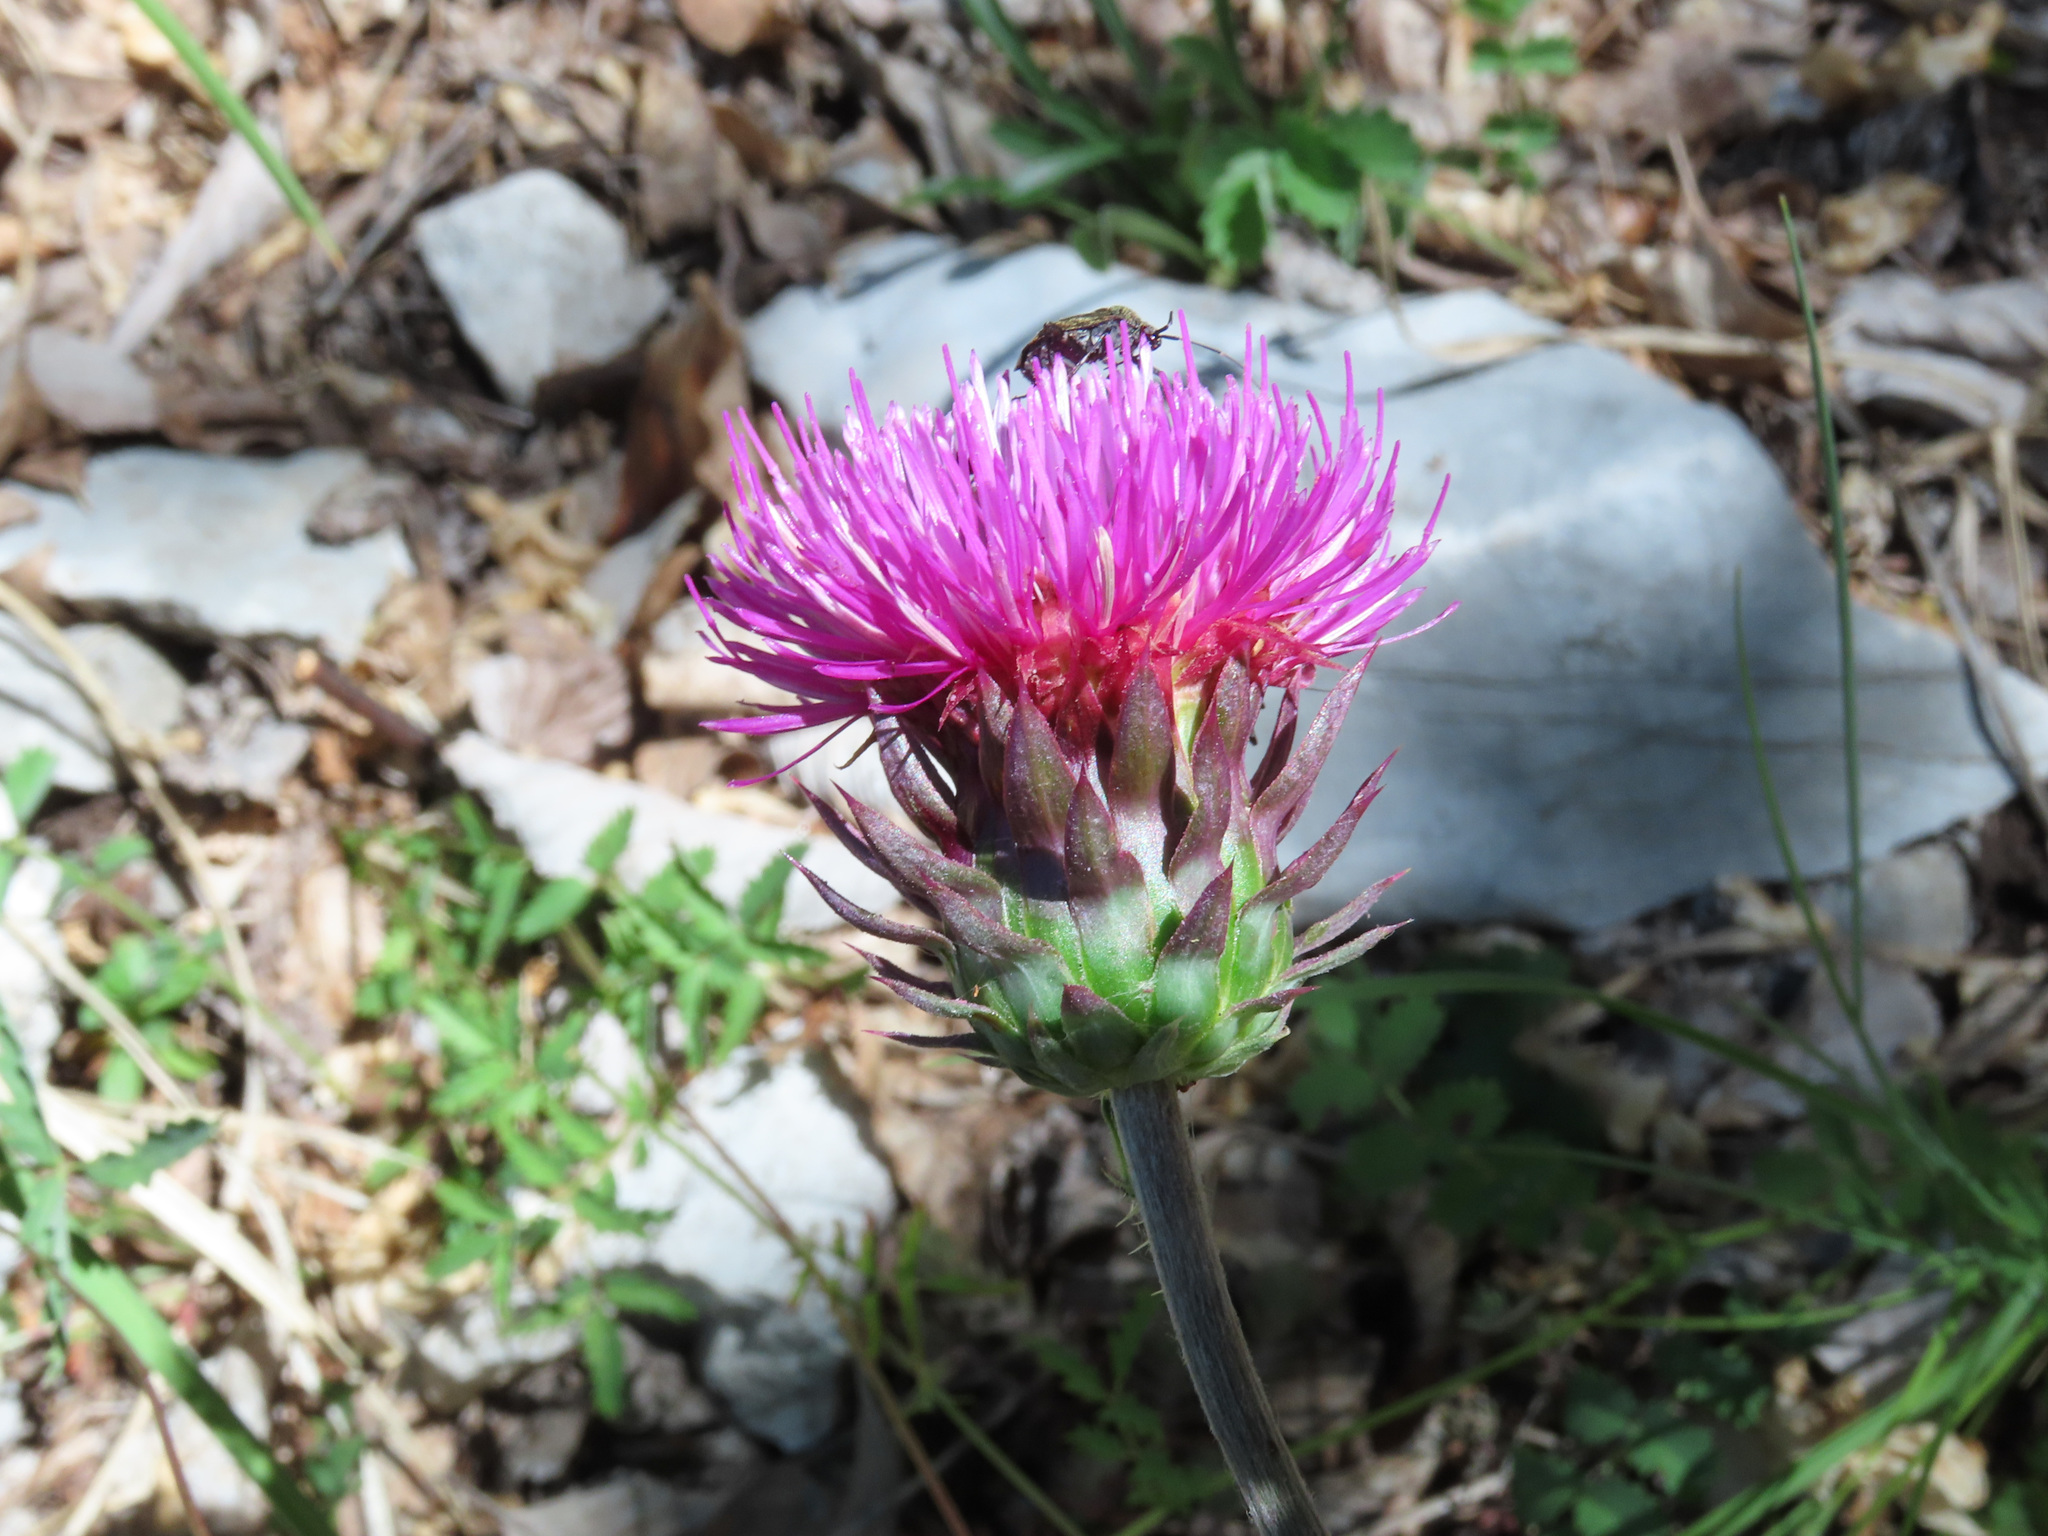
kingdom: Plantae
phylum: Tracheophyta
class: Magnoliopsida
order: Asterales
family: Asteraceae
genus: Carduus
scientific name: Carduus nutans
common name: Musk thistle
